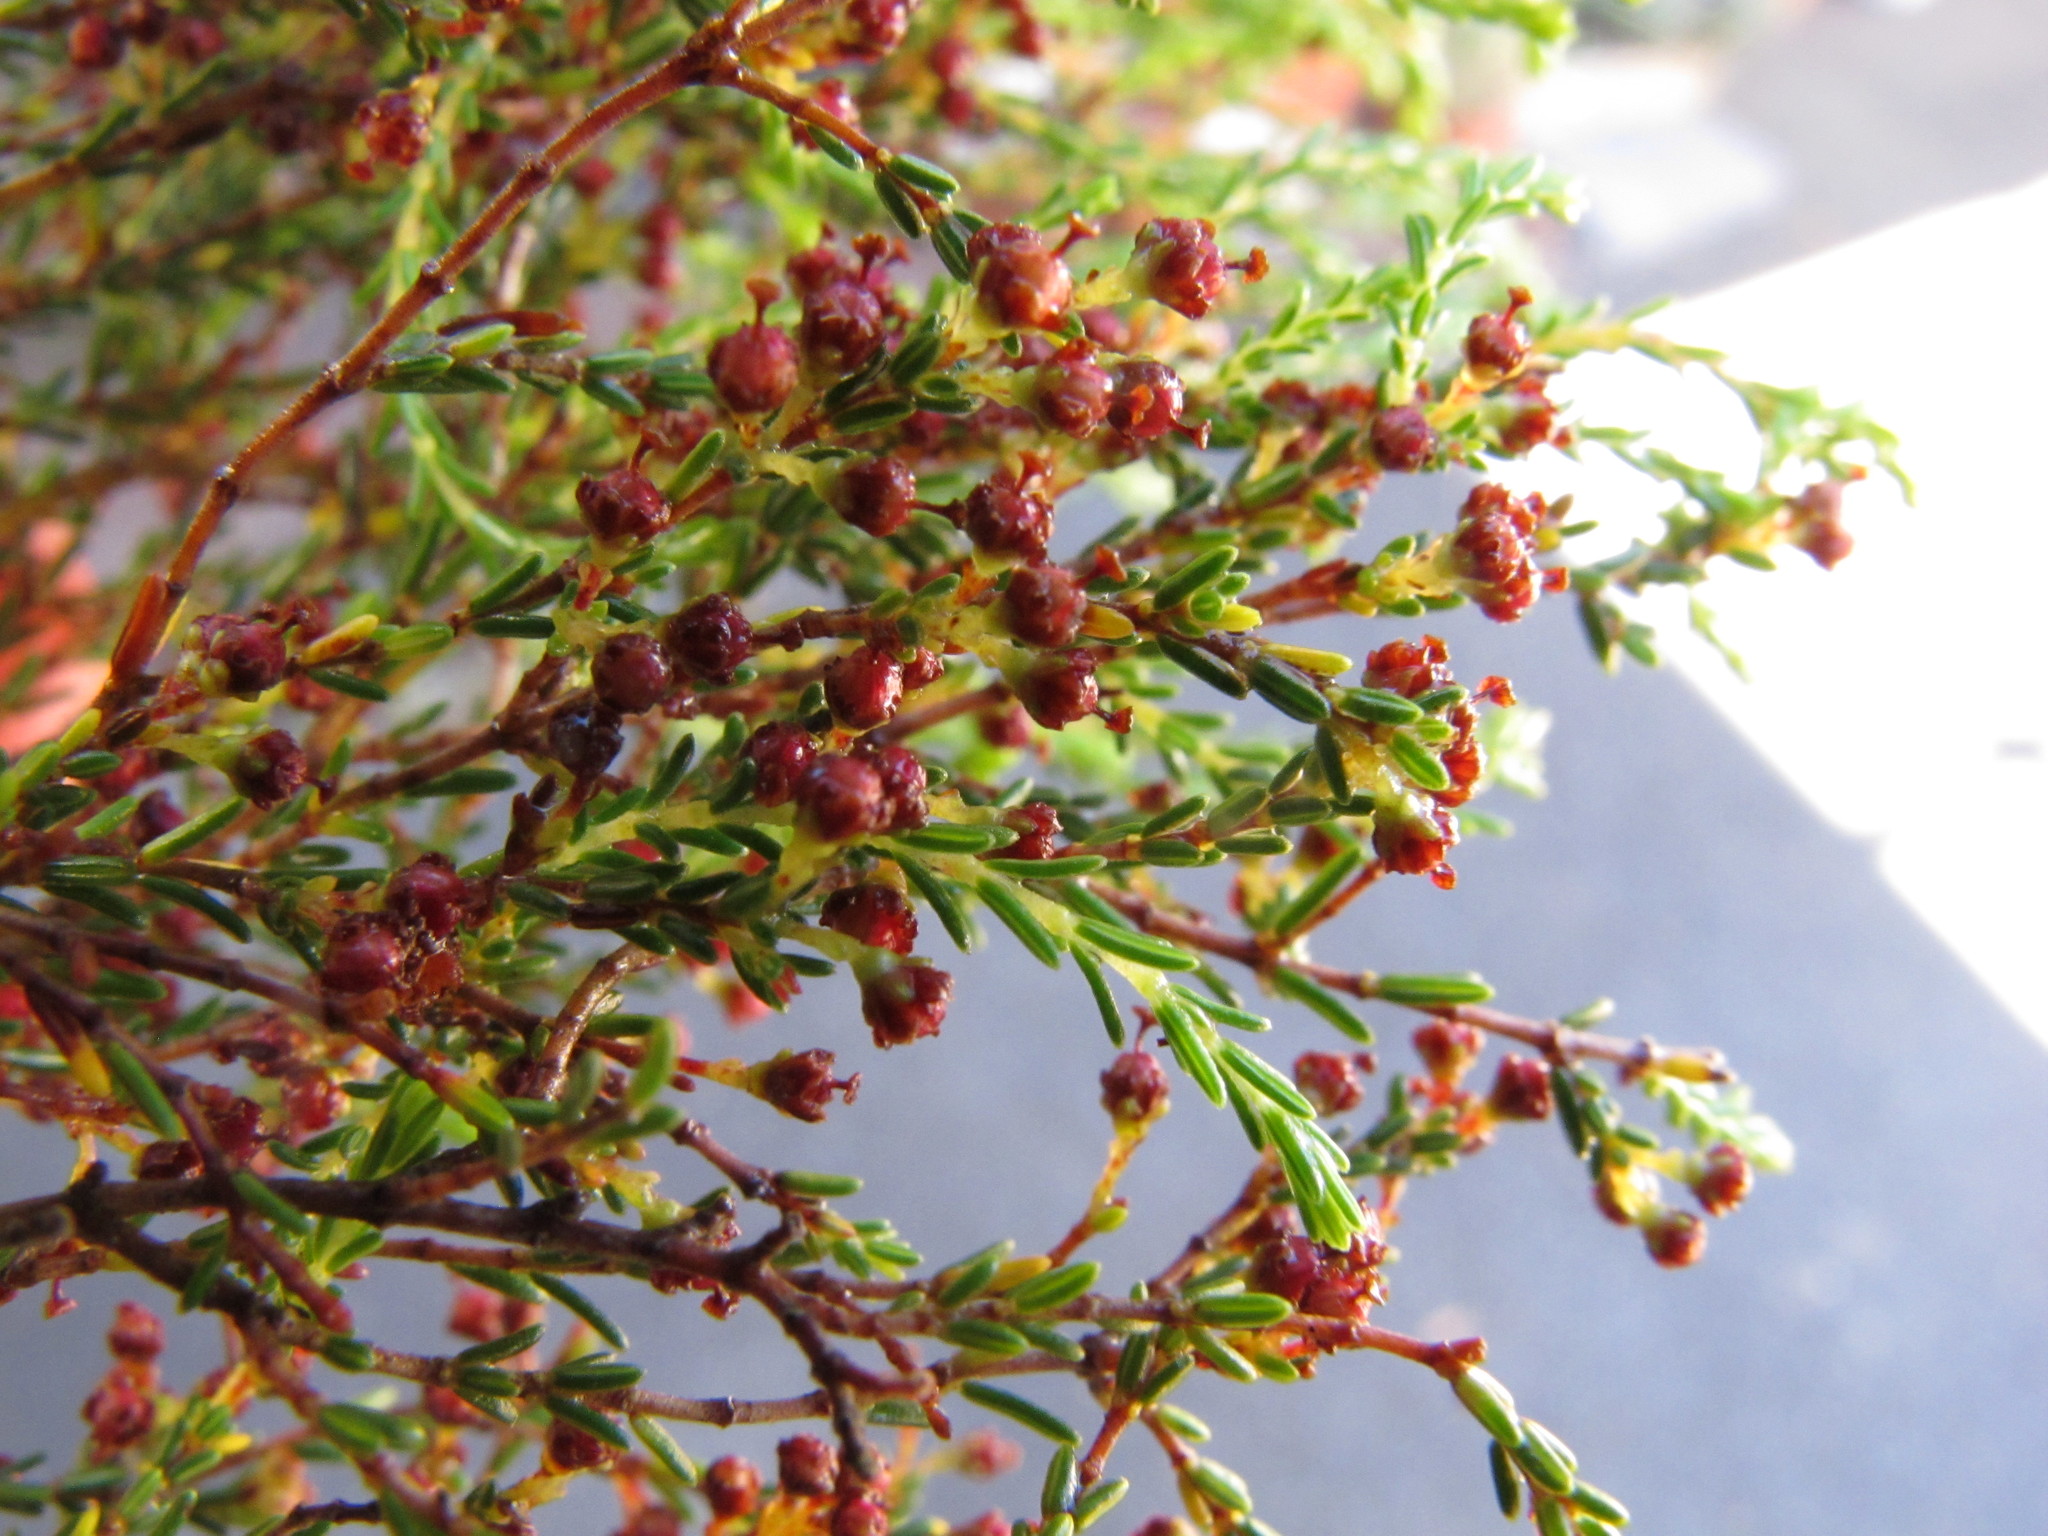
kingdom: Plantae
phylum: Tracheophyta
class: Magnoliopsida
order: Ericales
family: Ericaceae
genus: Erica
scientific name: Erica karooica
